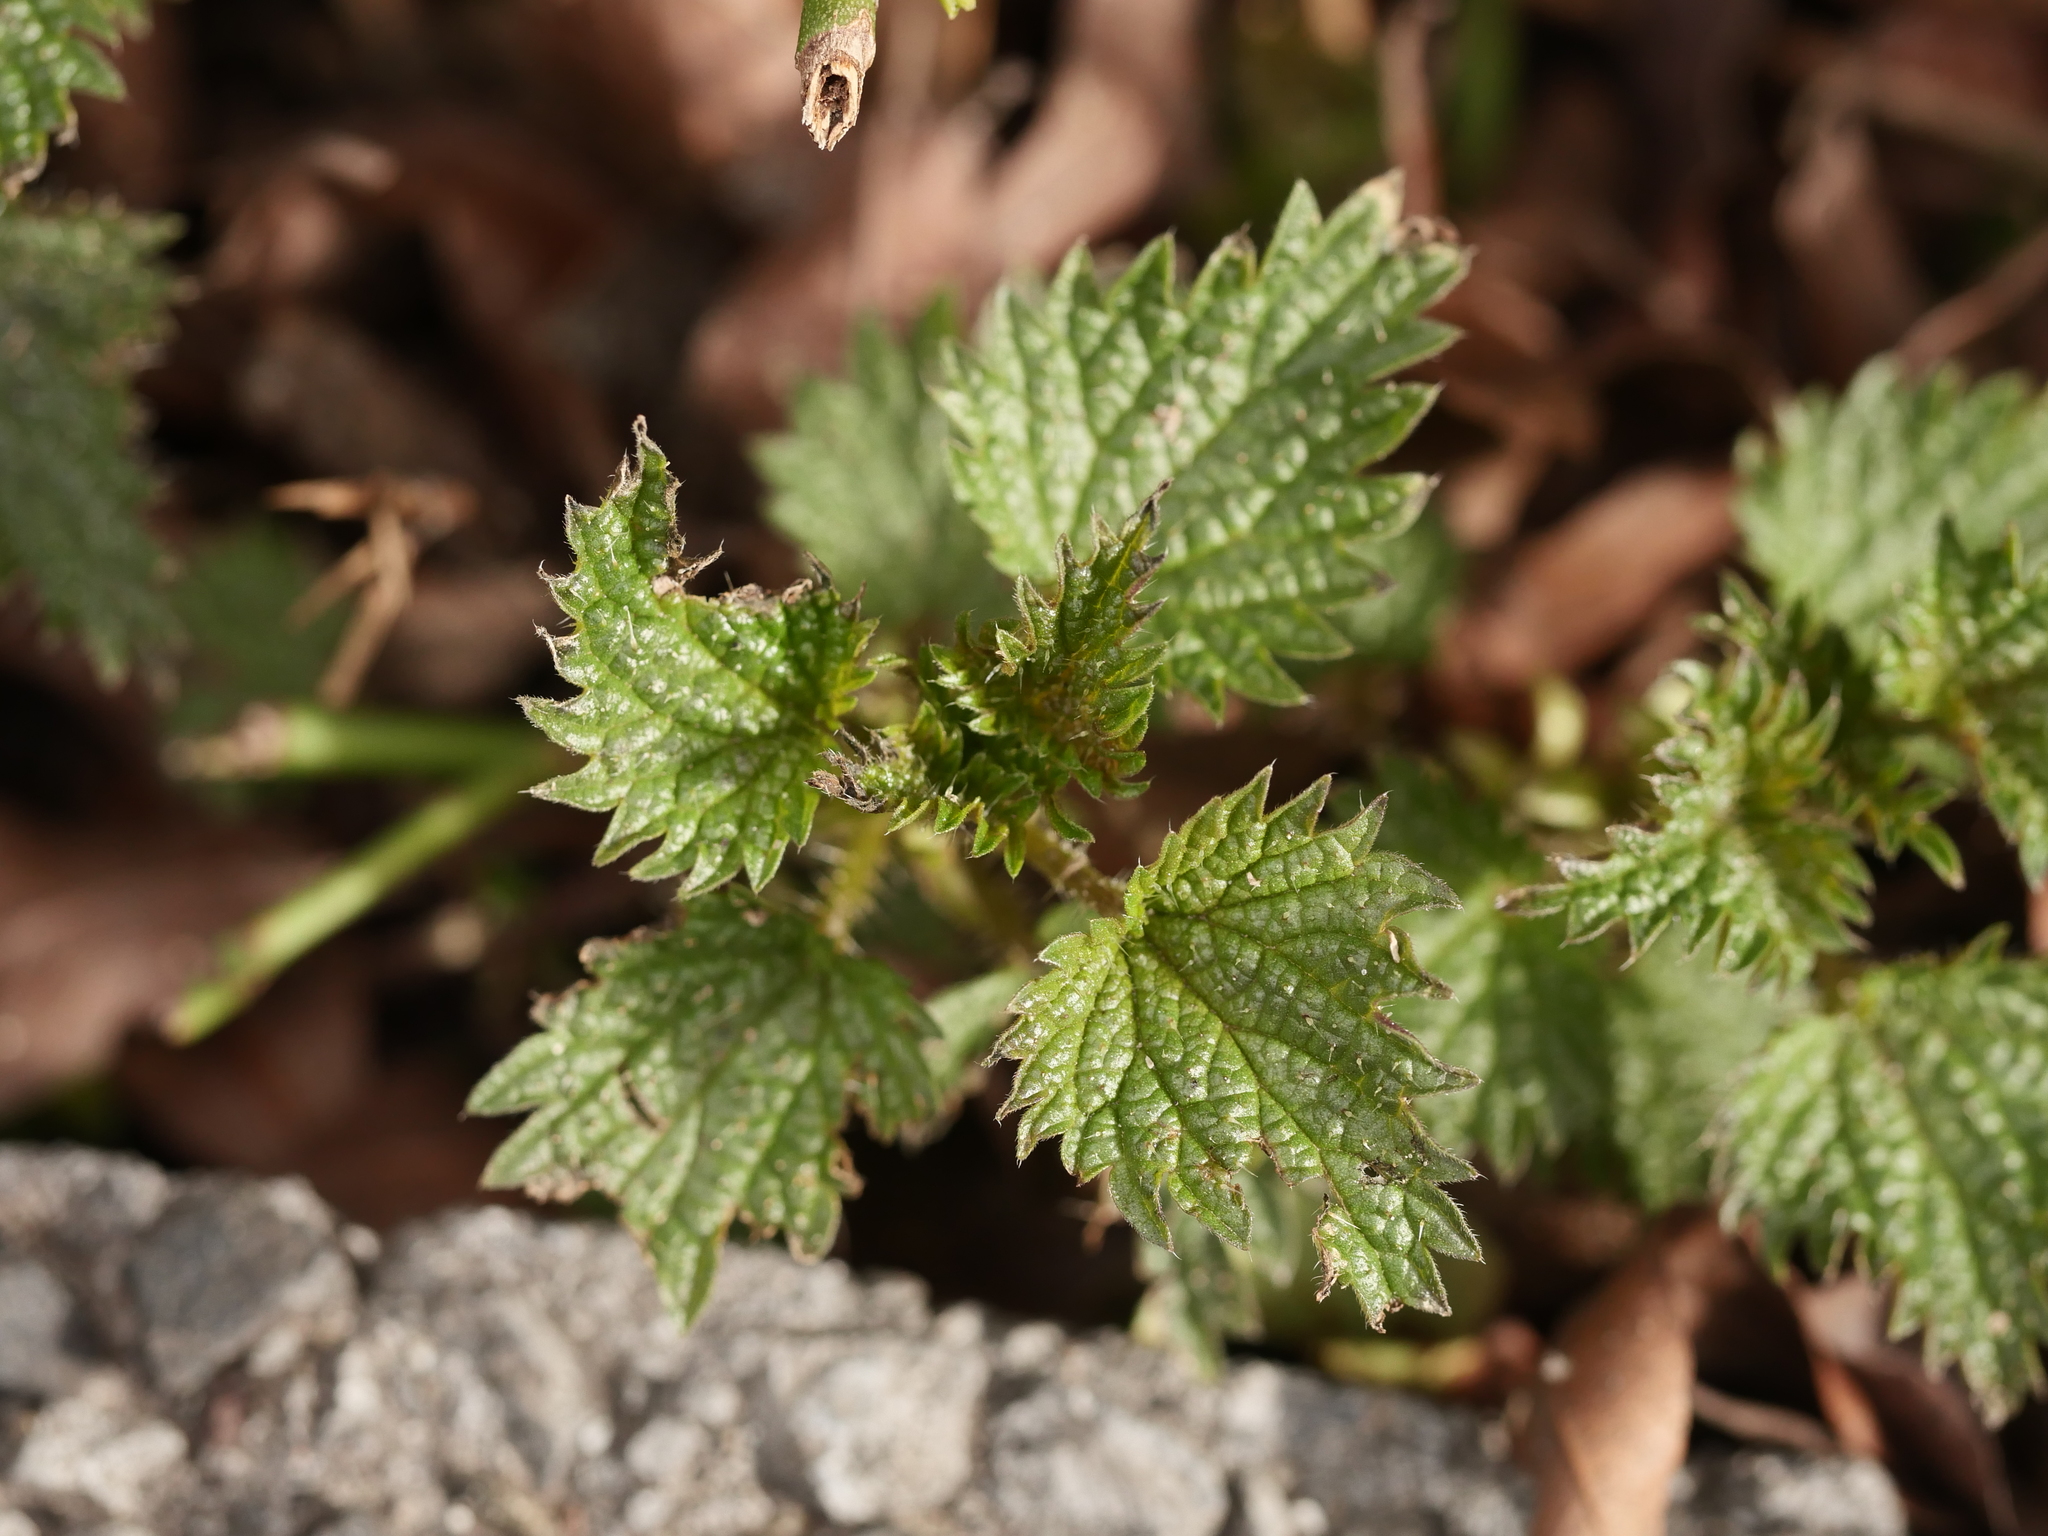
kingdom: Plantae
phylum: Tracheophyta
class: Magnoliopsida
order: Rosales
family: Urticaceae
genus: Urtica
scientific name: Urtica dioica
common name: Common nettle
